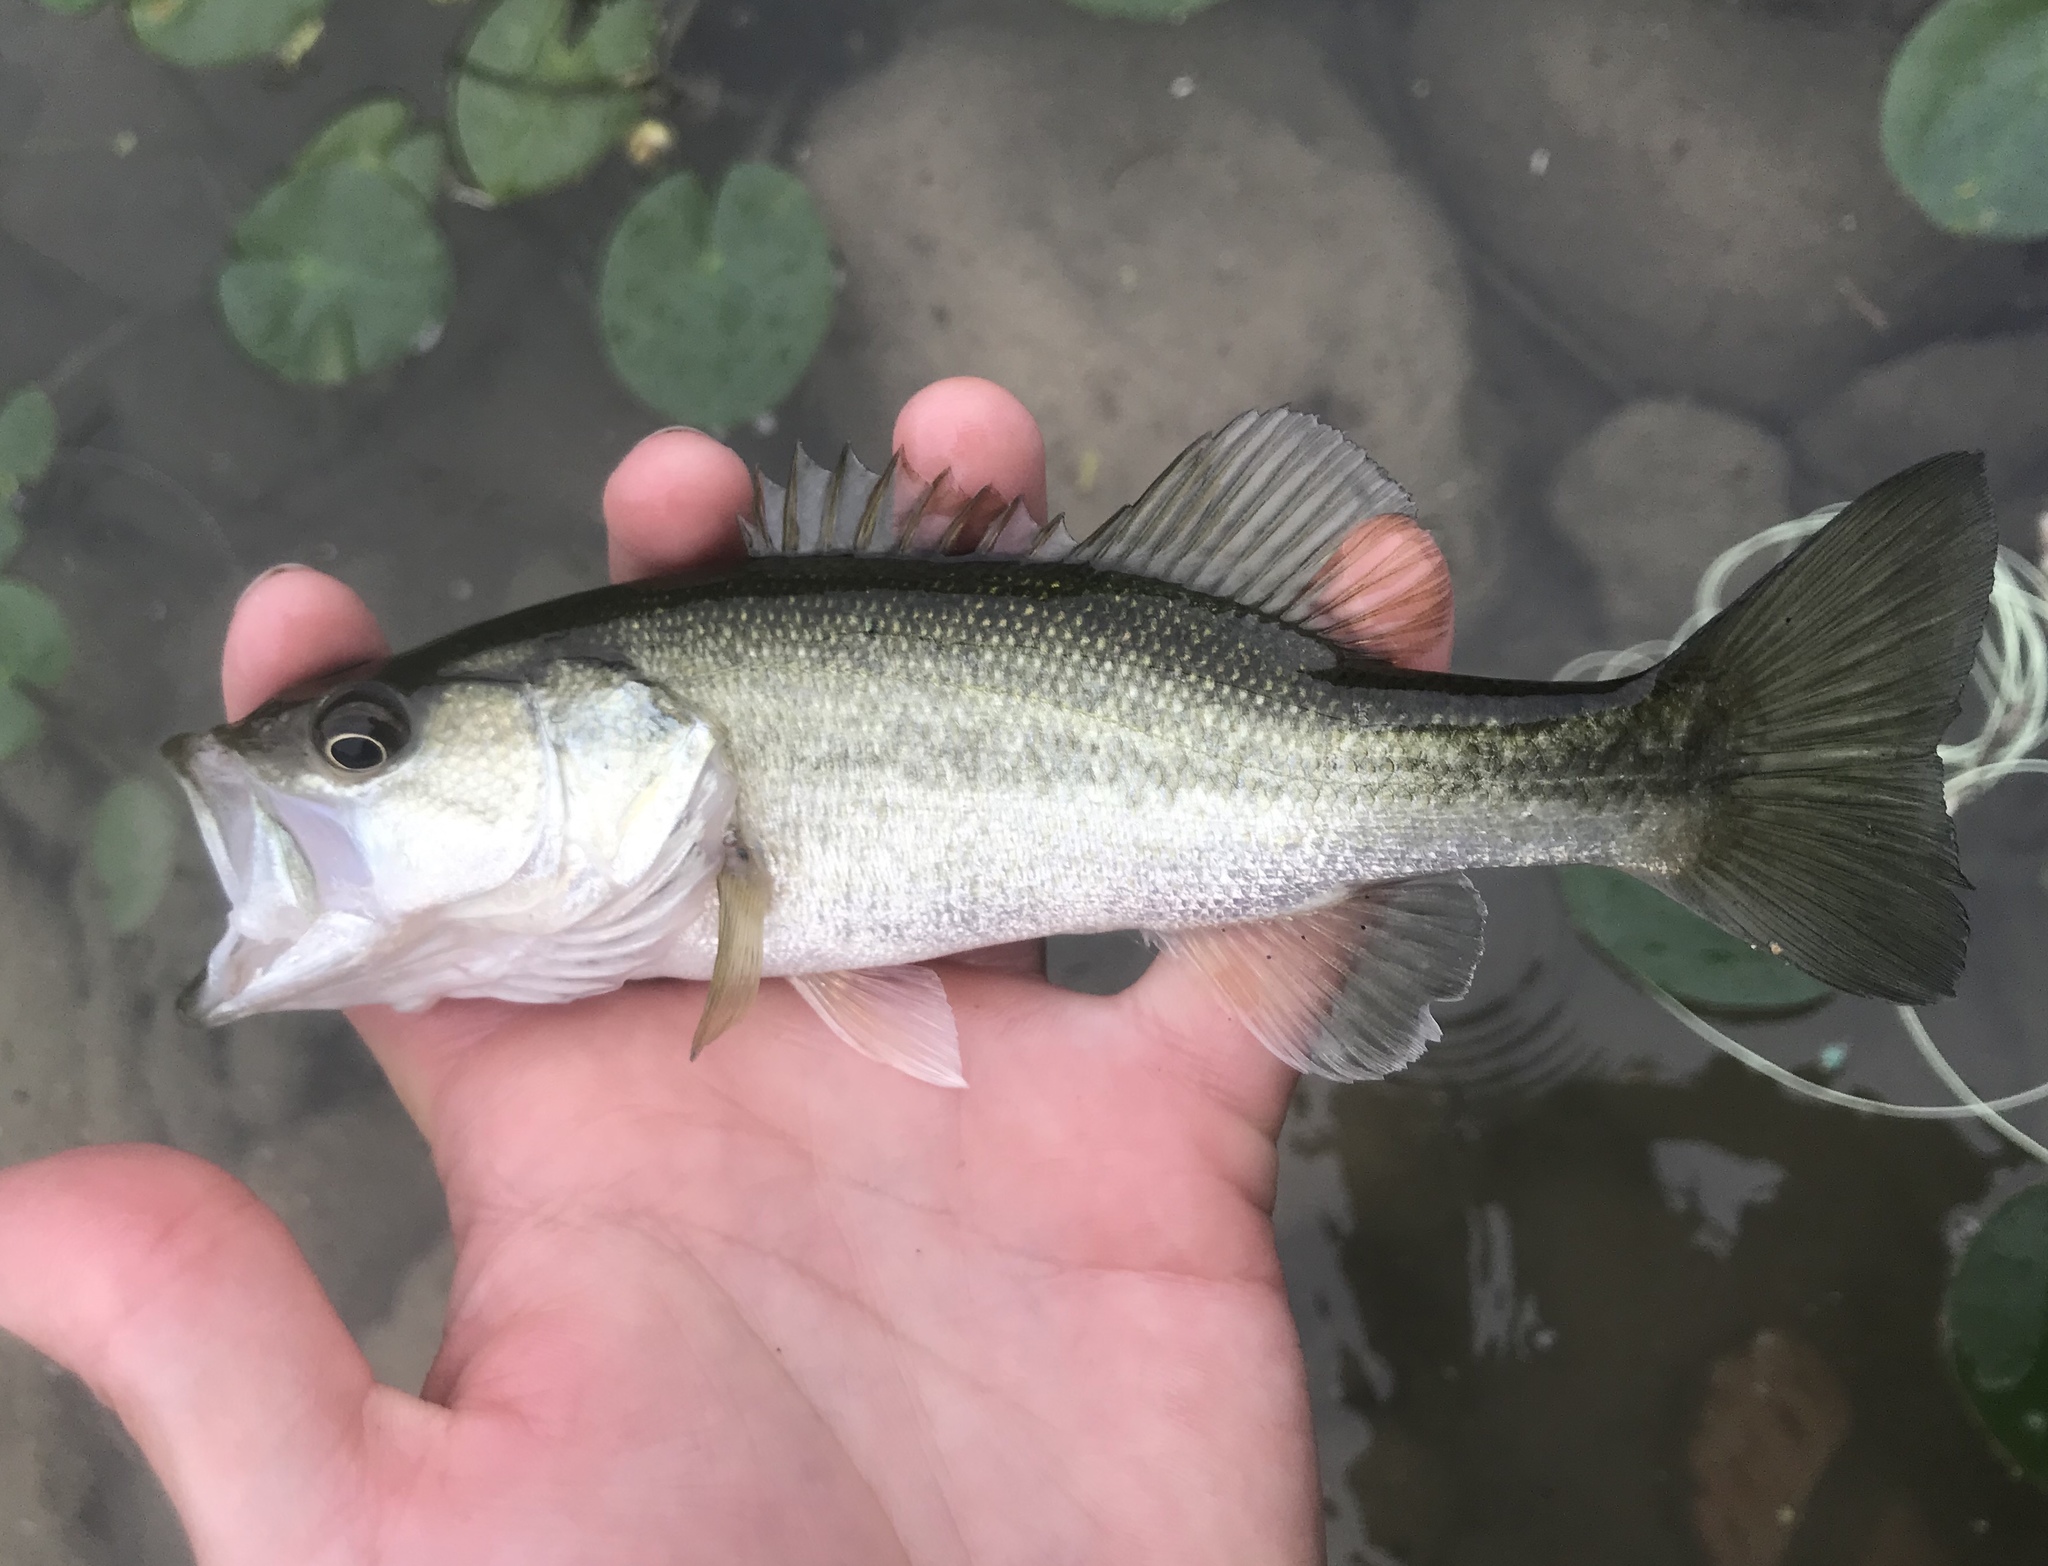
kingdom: Animalia
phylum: Chordata
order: Perciformes
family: Centrarchidae
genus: Micropterus
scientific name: Micropterus
